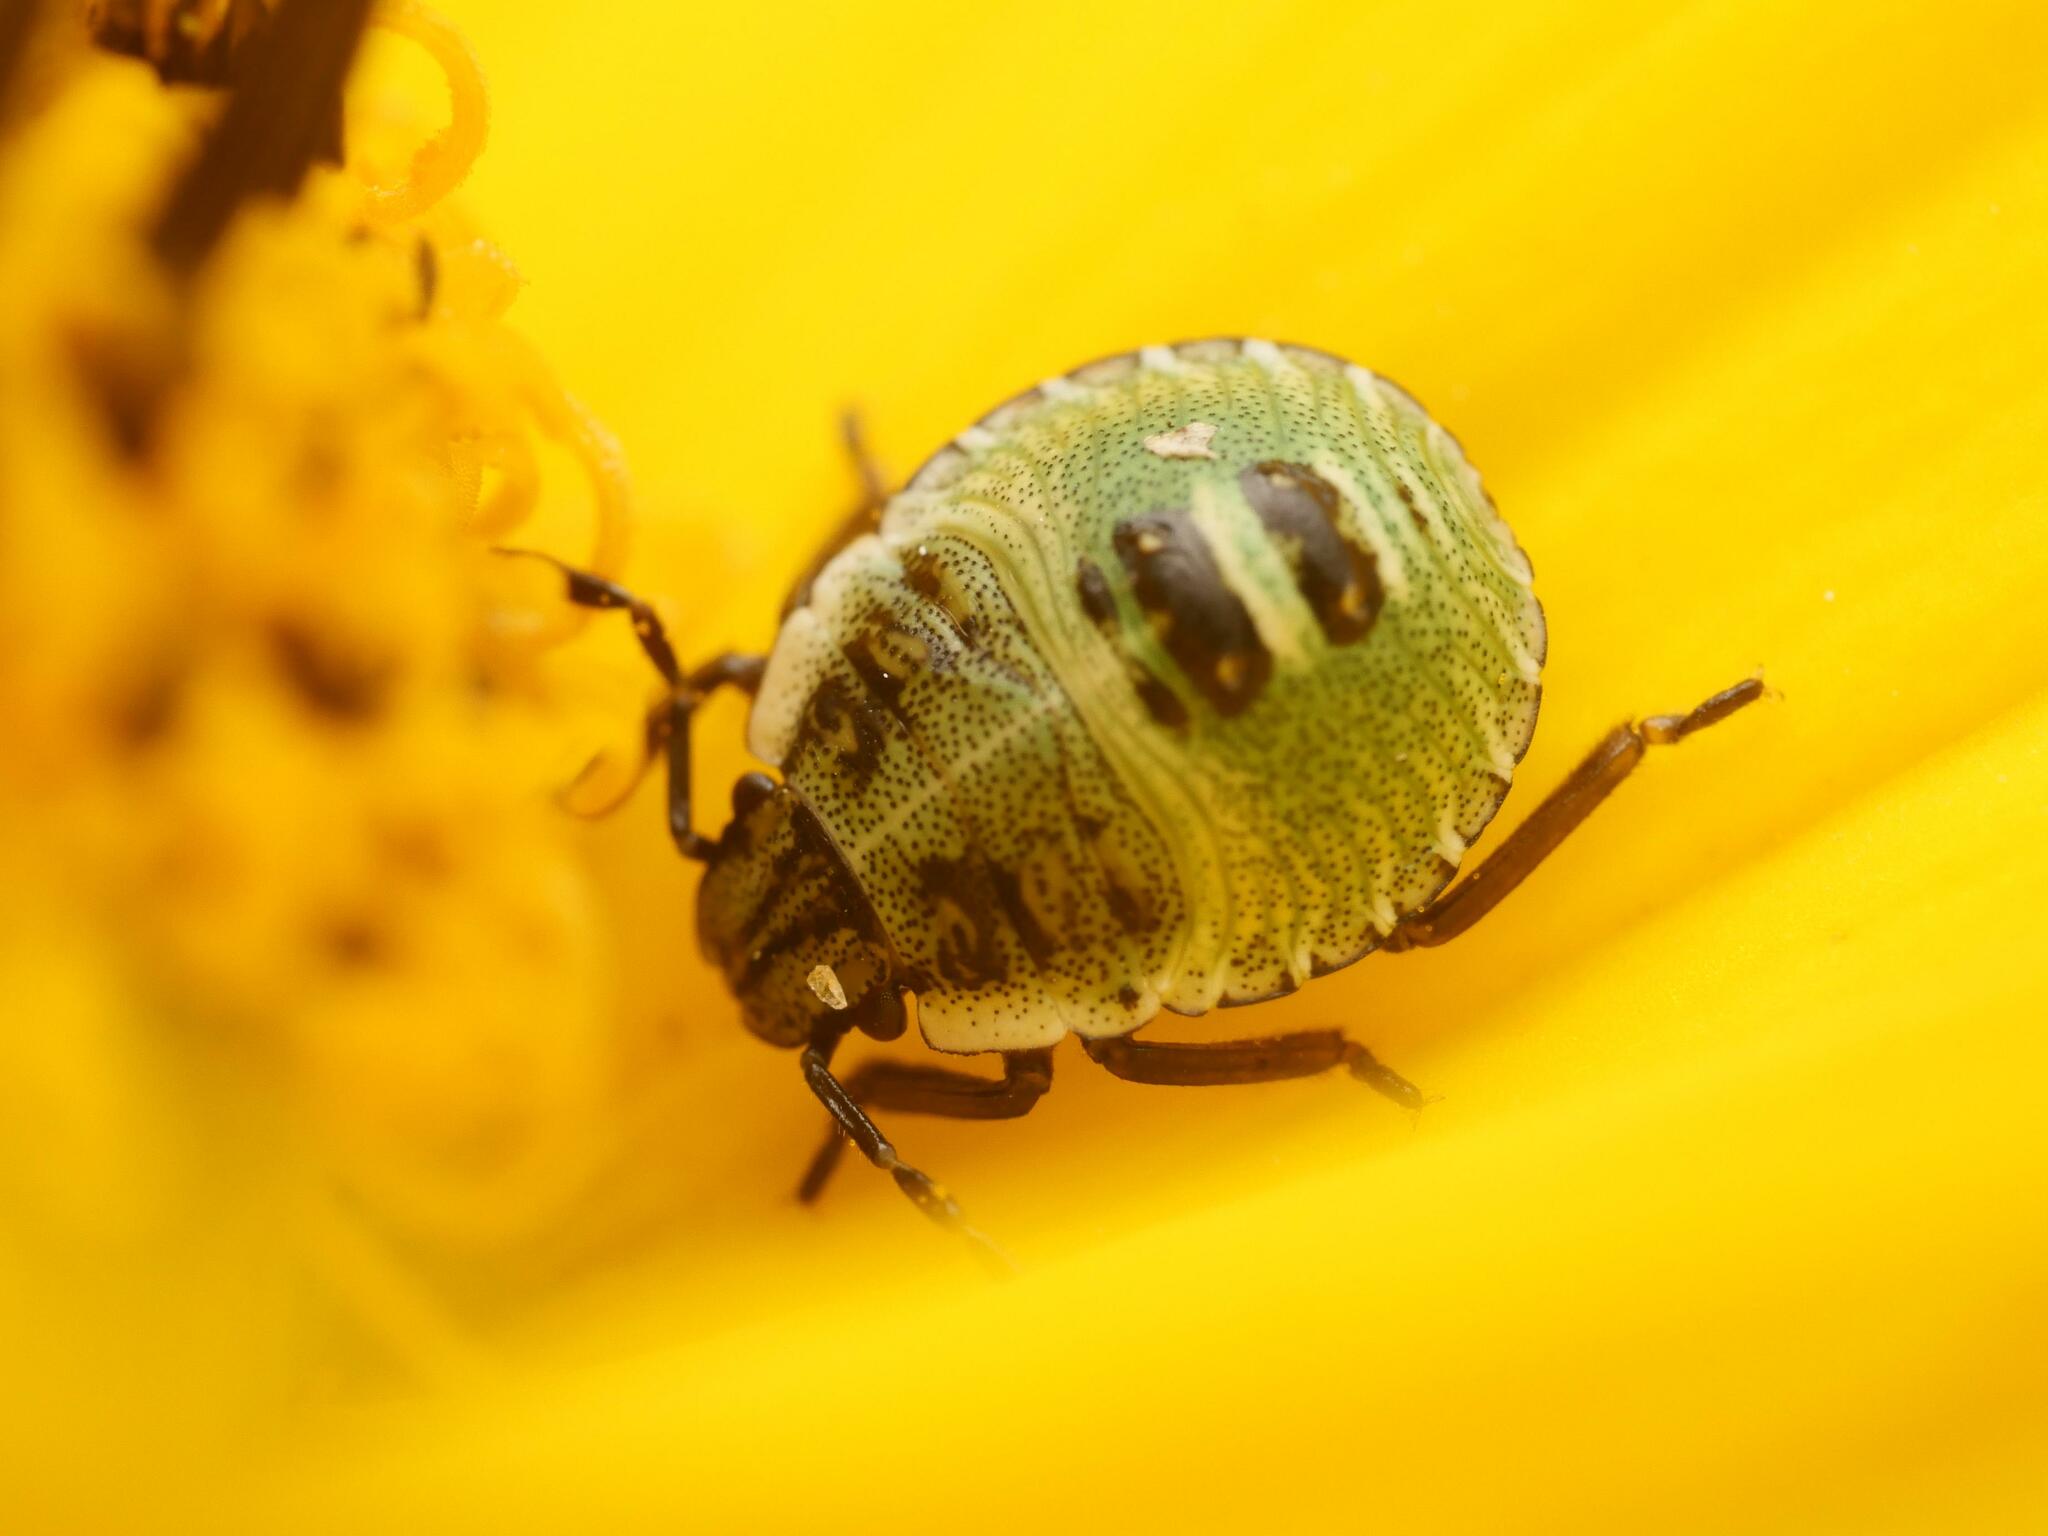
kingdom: Animalia
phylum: Arthropoda
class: Insecta
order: Hemiptera
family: Pentatomidae
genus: Palomena
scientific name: Palomena prasina
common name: Green shieldbug
